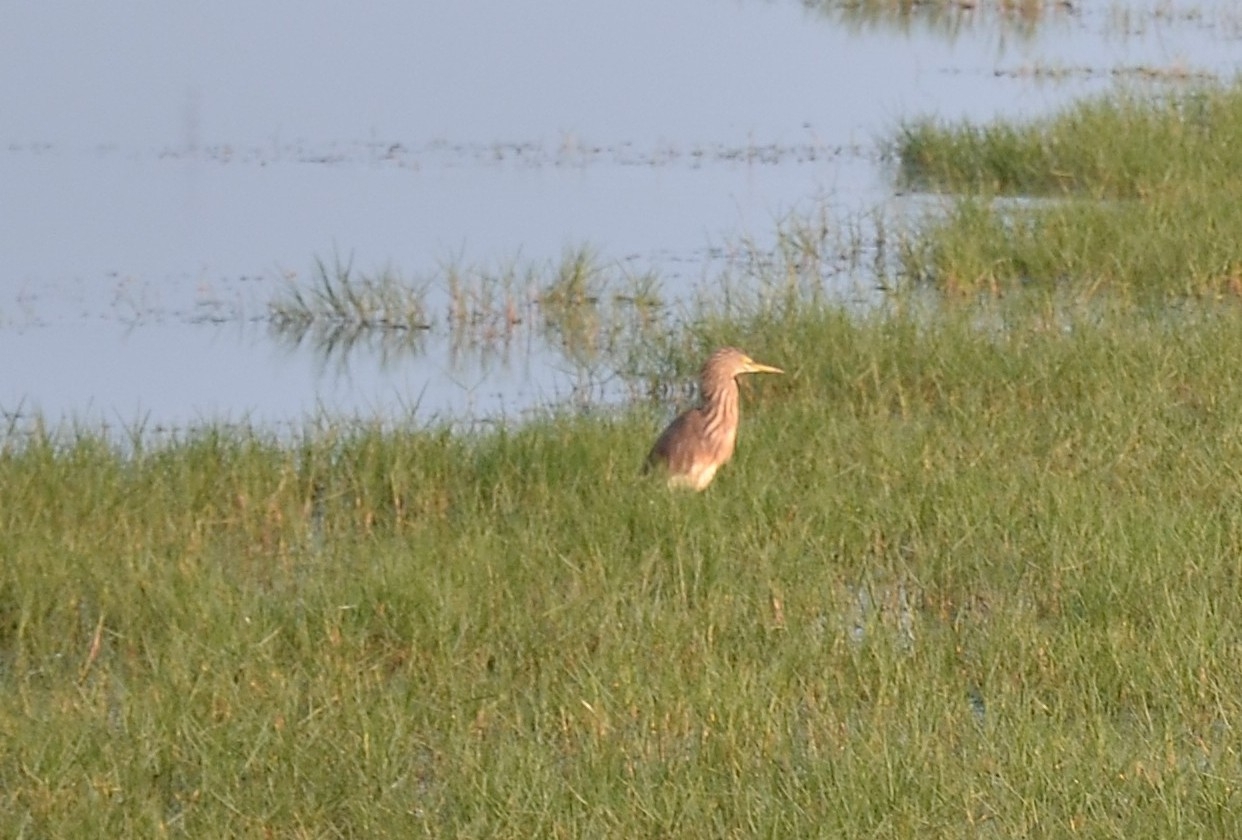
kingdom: Animalia
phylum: Chordata
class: Aves
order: Pelecaniformes
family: Ardeidae
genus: Ardeola
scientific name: Ardeola grayii
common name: Indian pond heron
